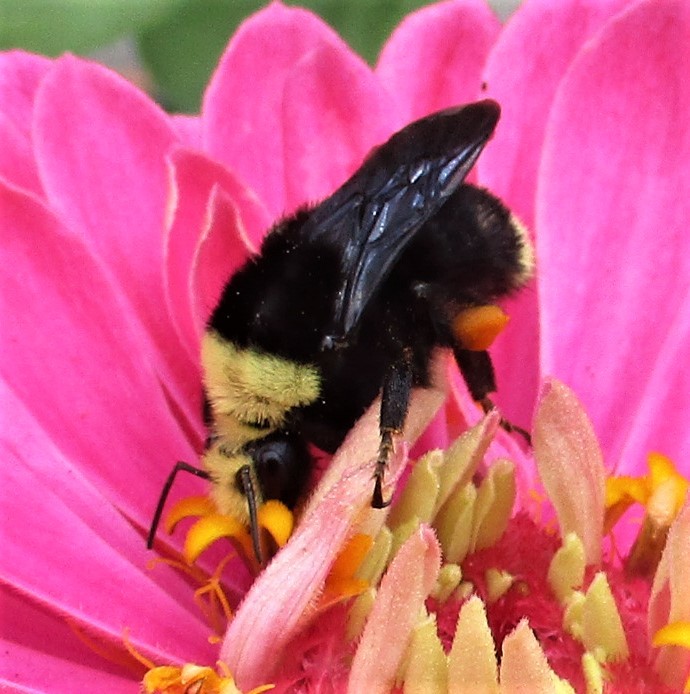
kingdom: Animalia
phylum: Arthropoda
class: Insecta
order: Hymenoptera
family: Apidae
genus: Bombus
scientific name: Bombus vosnesenskii
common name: Vosnesensky bumble bee
